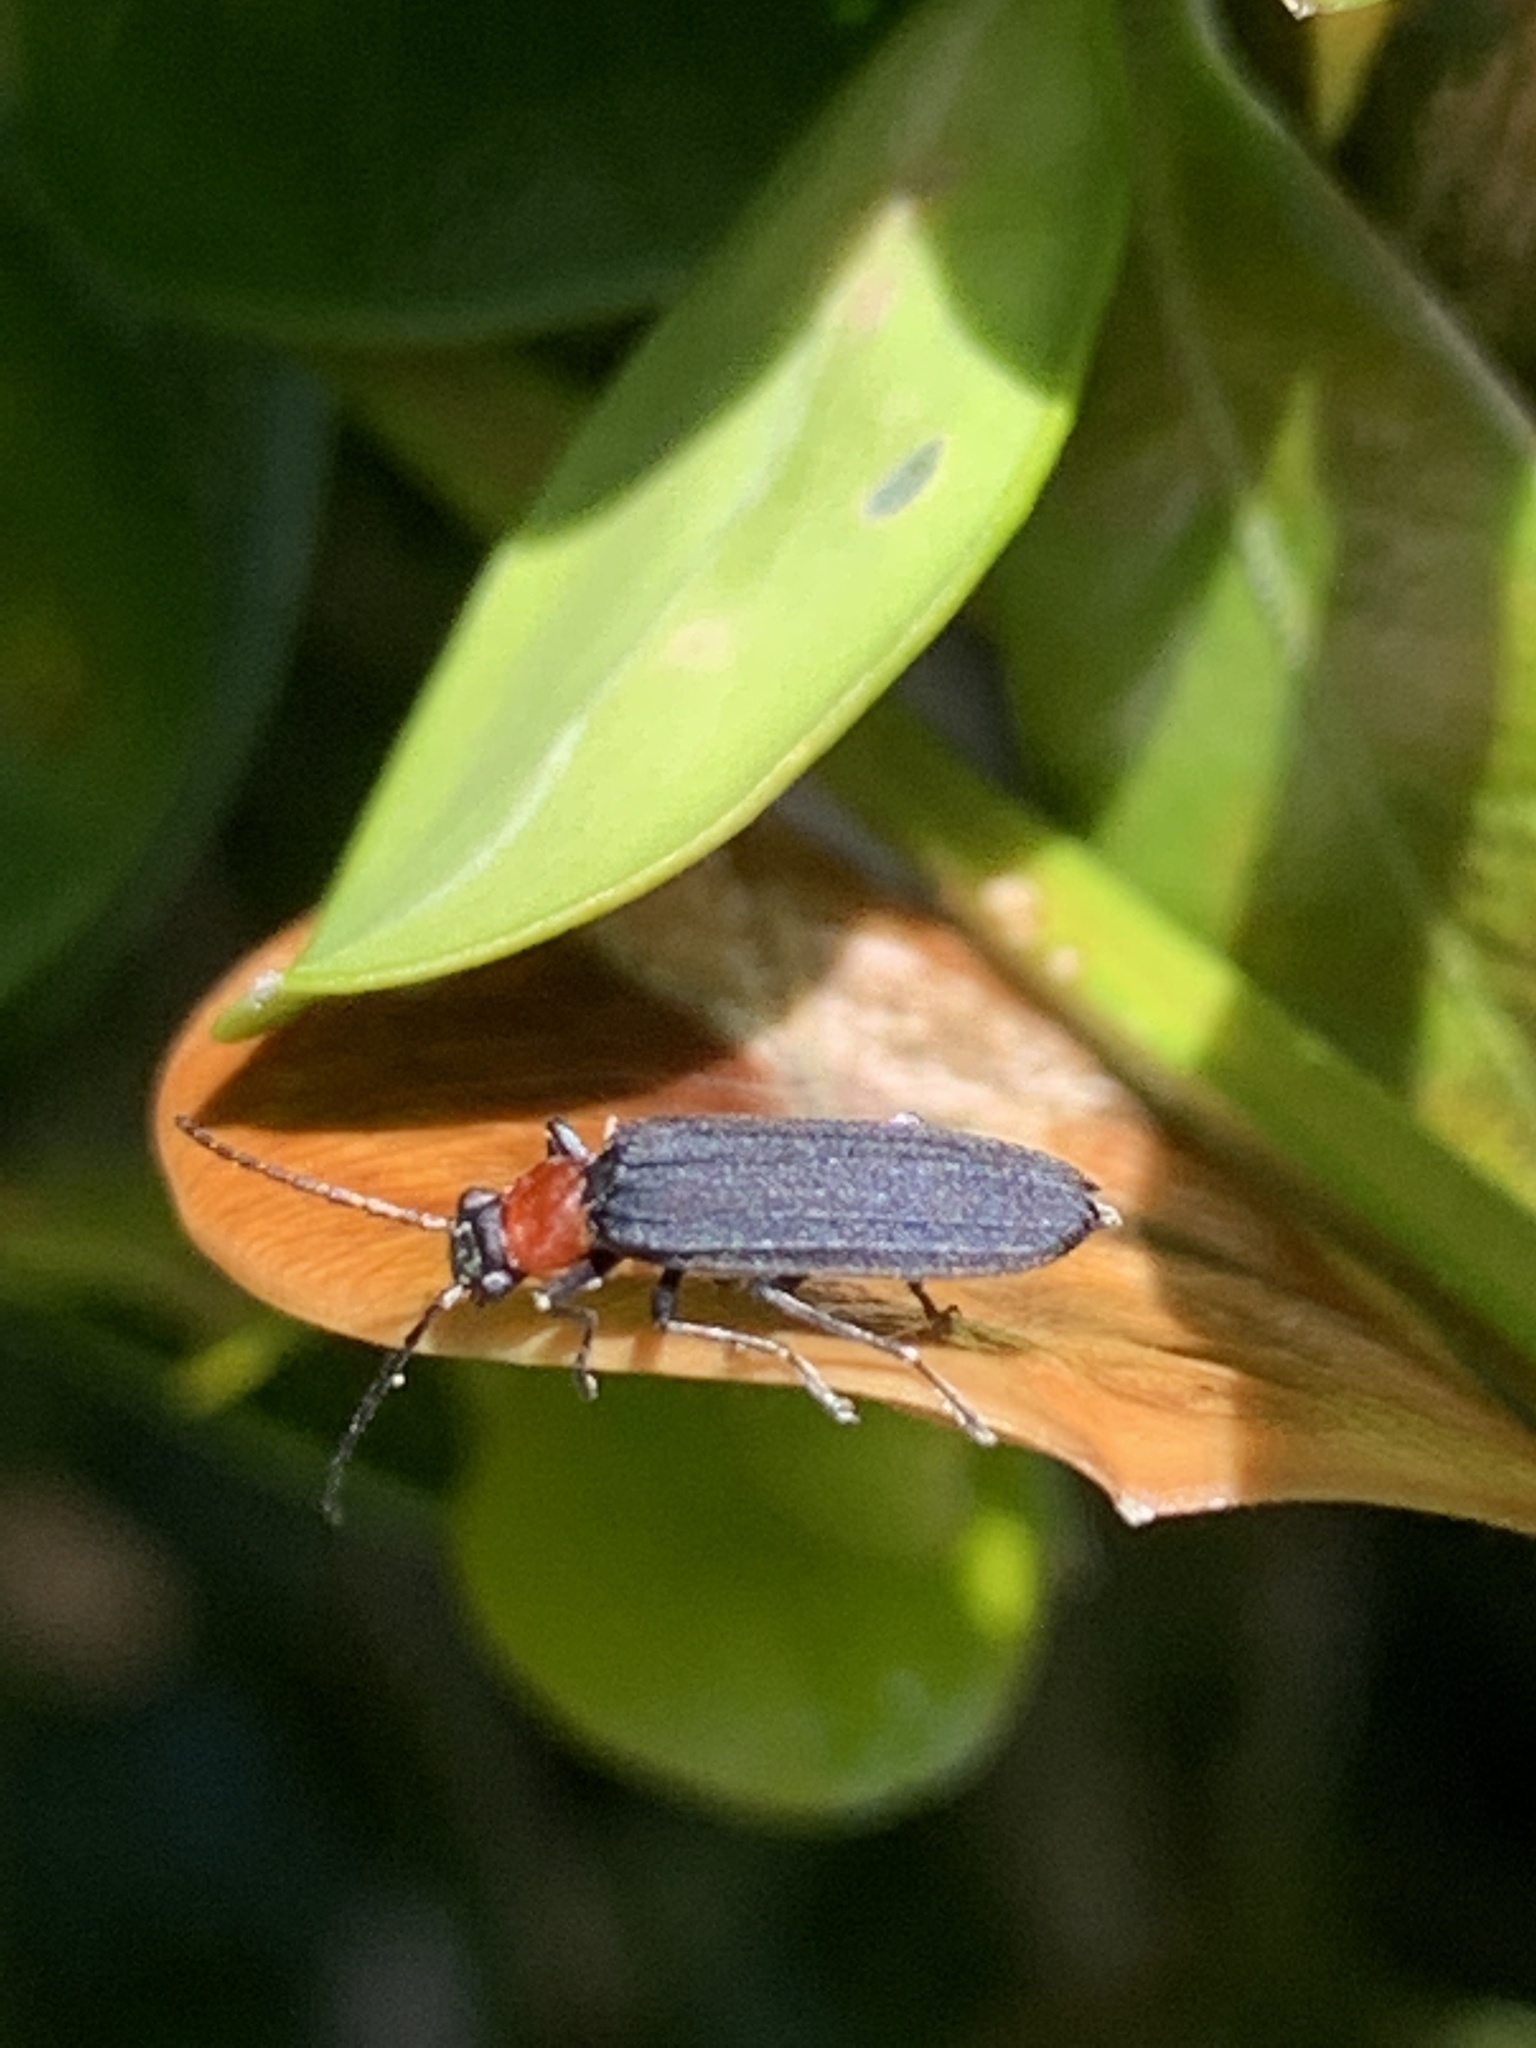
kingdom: Animalia
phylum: Arthropoda
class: Insecta
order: Coleoptera
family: Oedemeridae
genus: Ischnomera
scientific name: Ischnomera
